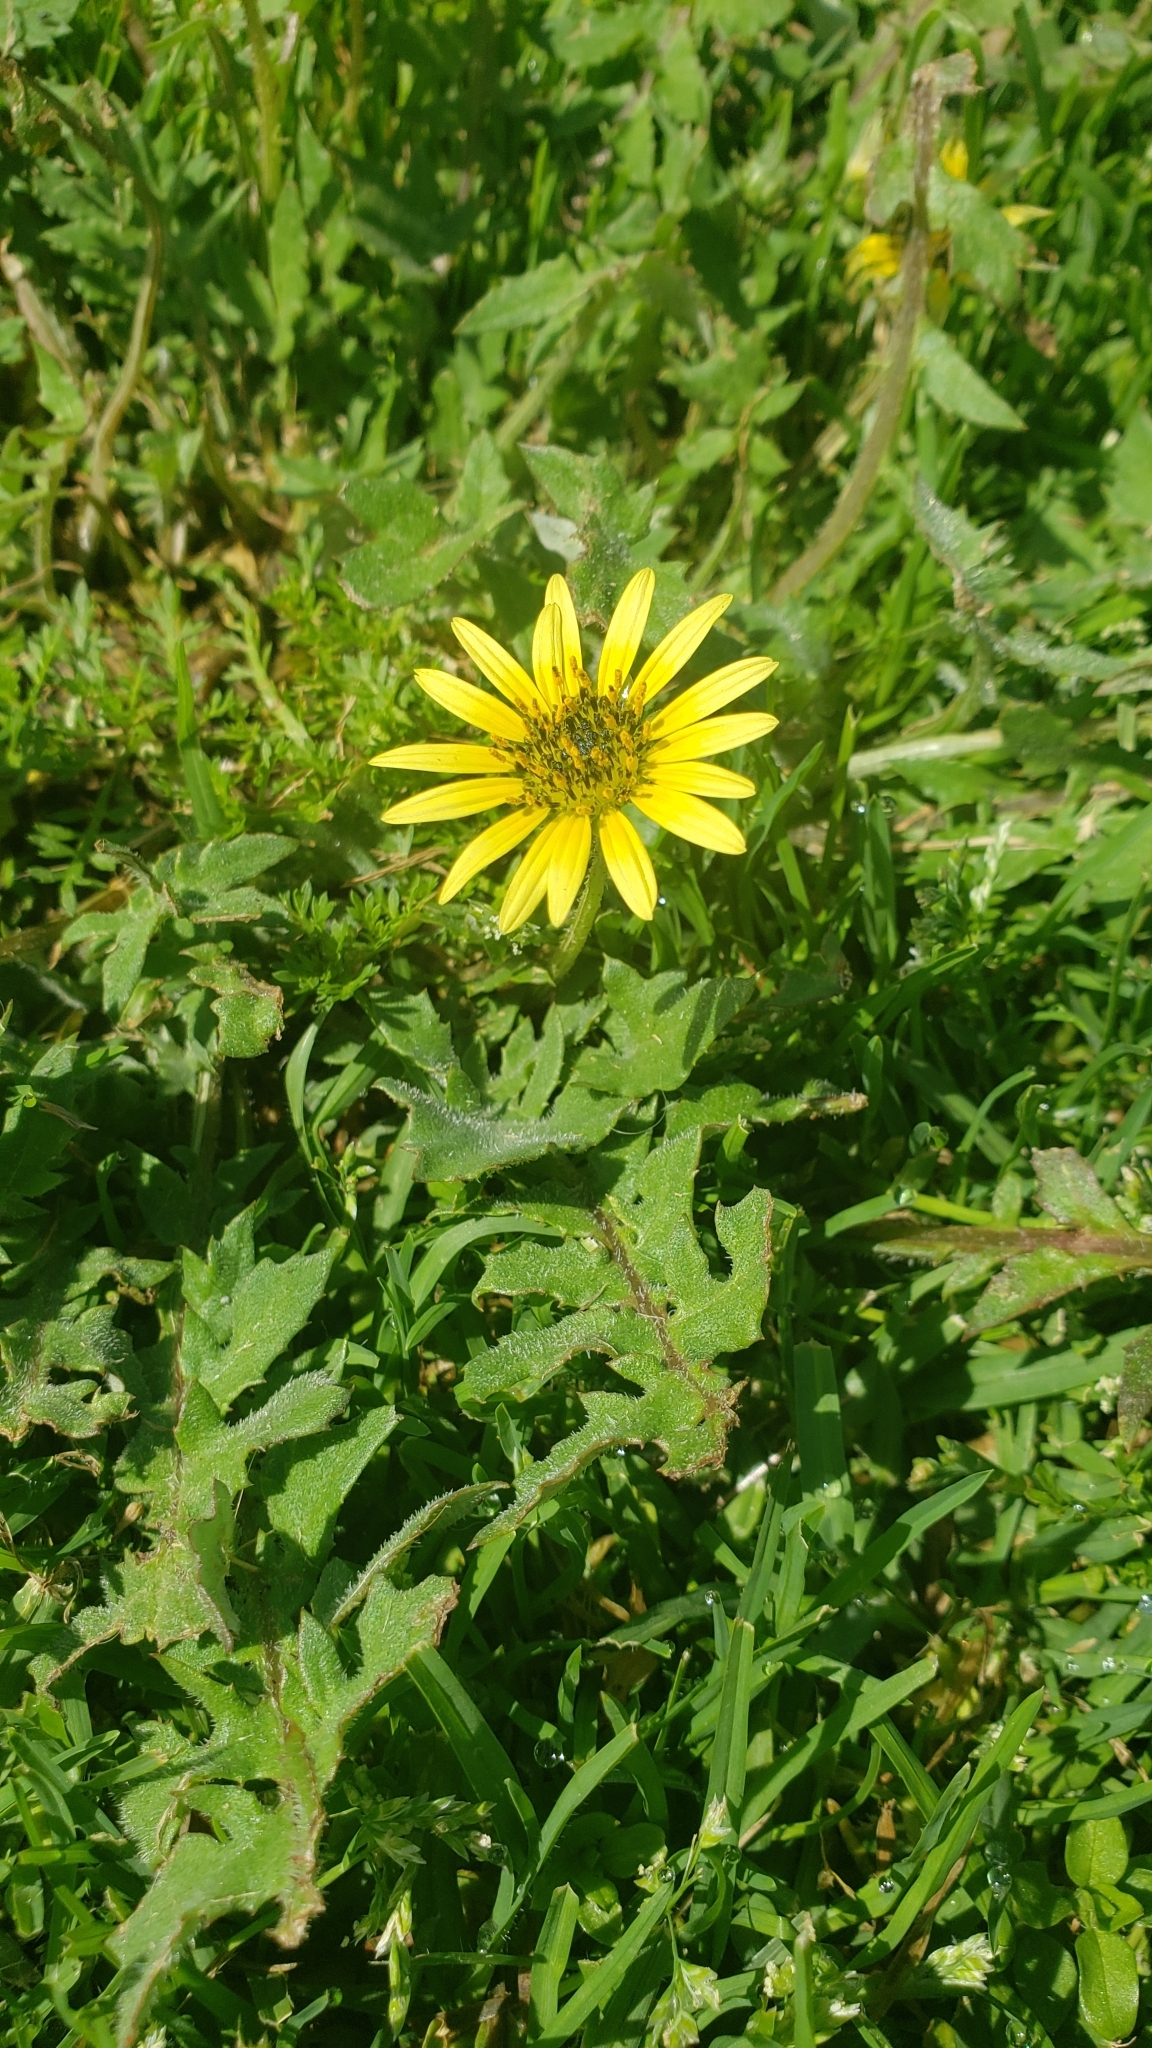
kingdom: Plantae
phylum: Tracheophyta
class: Magnoliopsida
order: Asterales
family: Asteraceae
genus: Arctotheca
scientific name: Arctotheca calendula
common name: Capeweed
